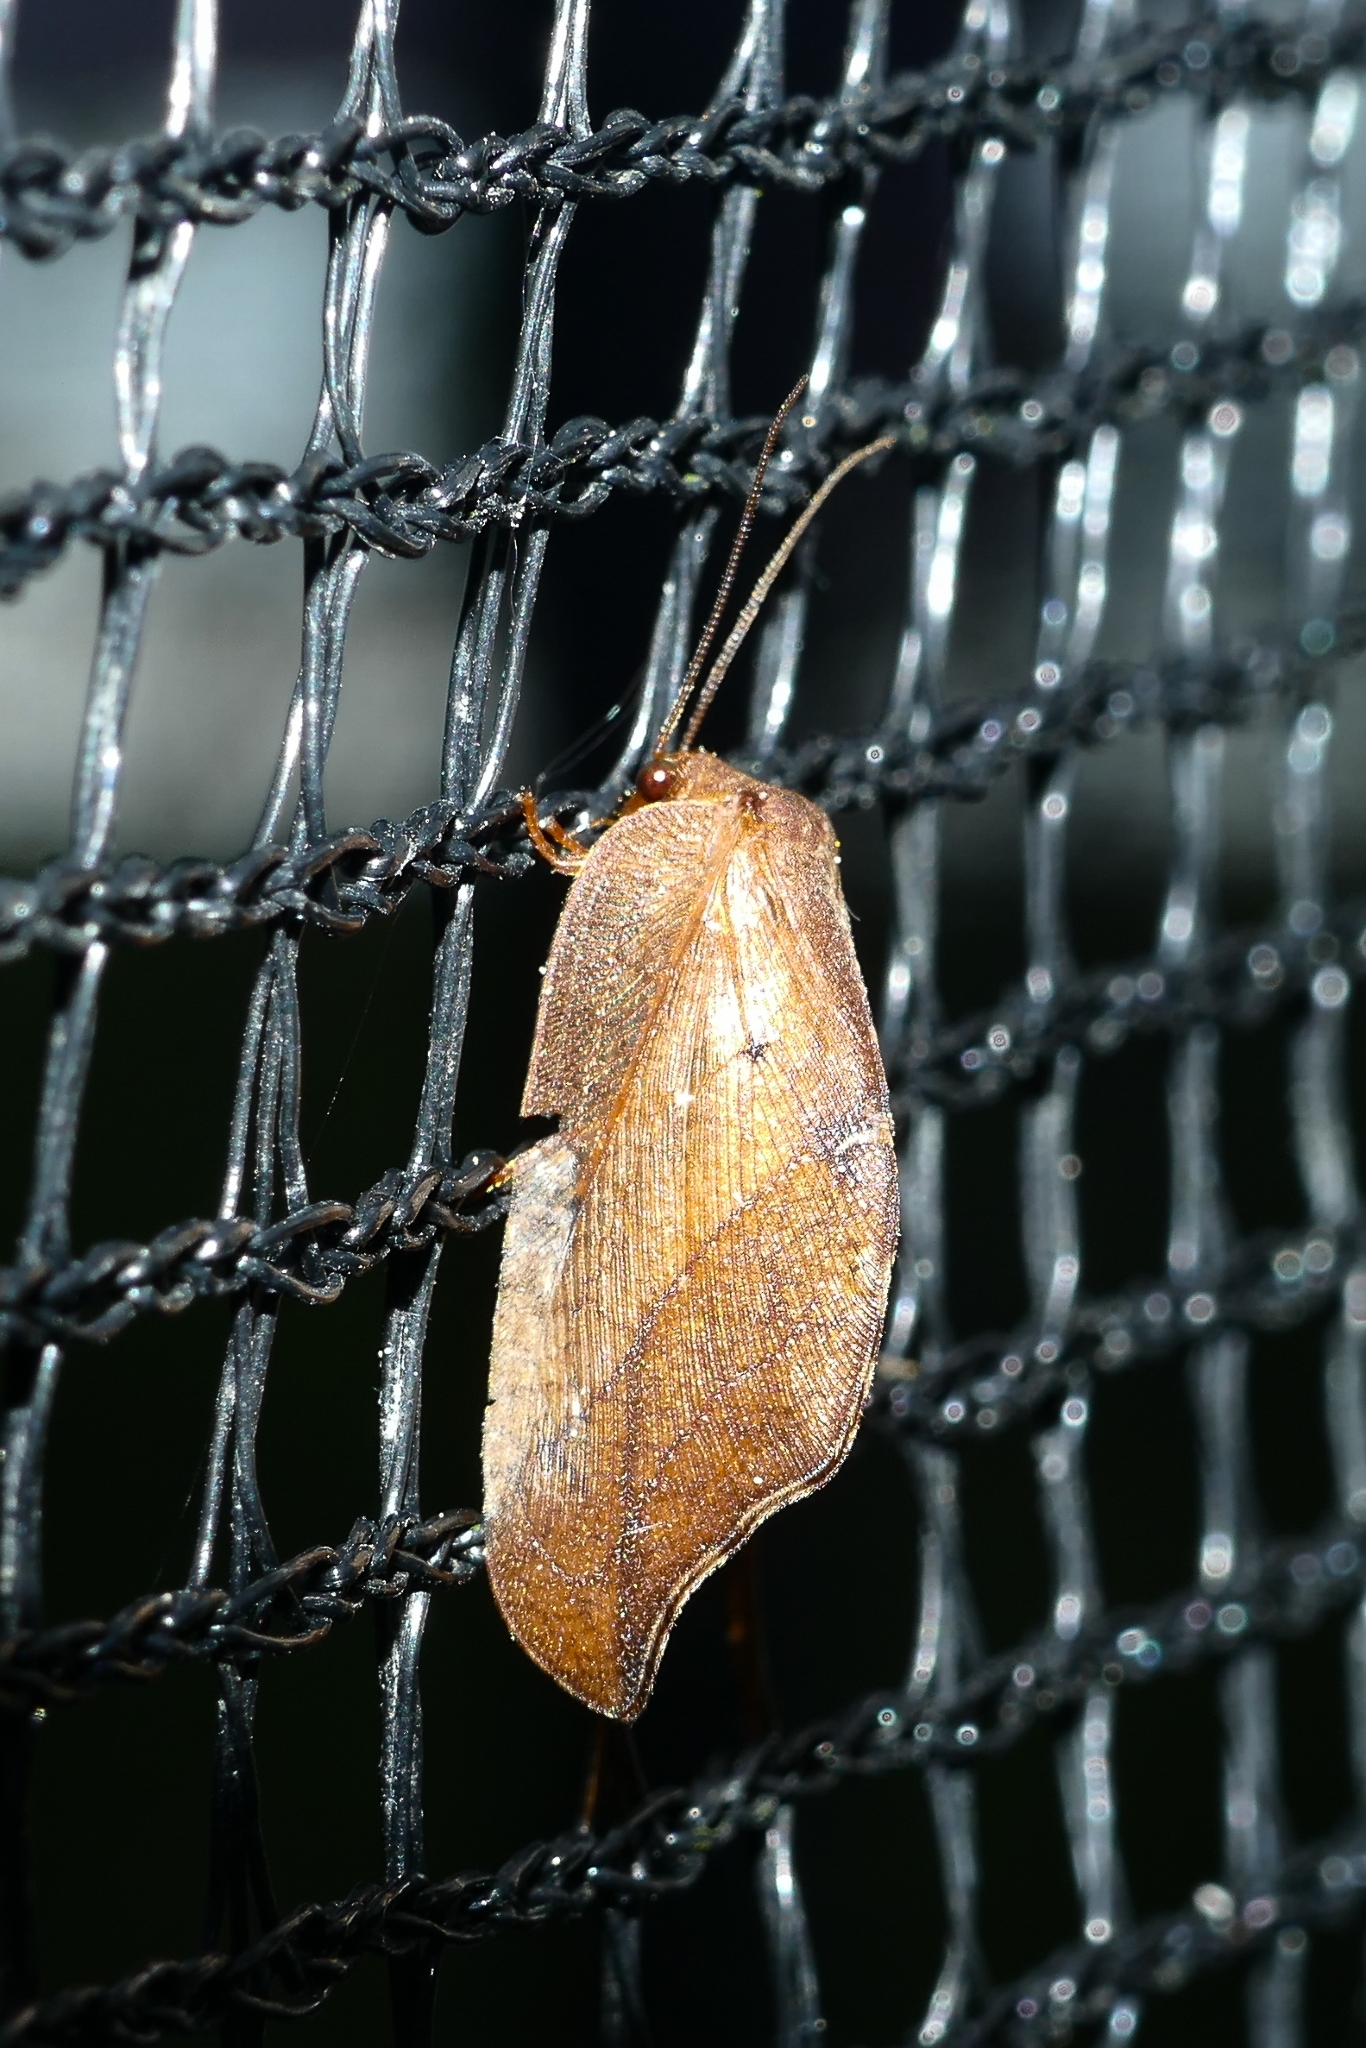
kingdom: Animalia
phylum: Arthropoda
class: Insecta
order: Neuroptera
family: Hemerobiidae
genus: Drepanepteryx
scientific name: Drepanepteryx phalaenoides
